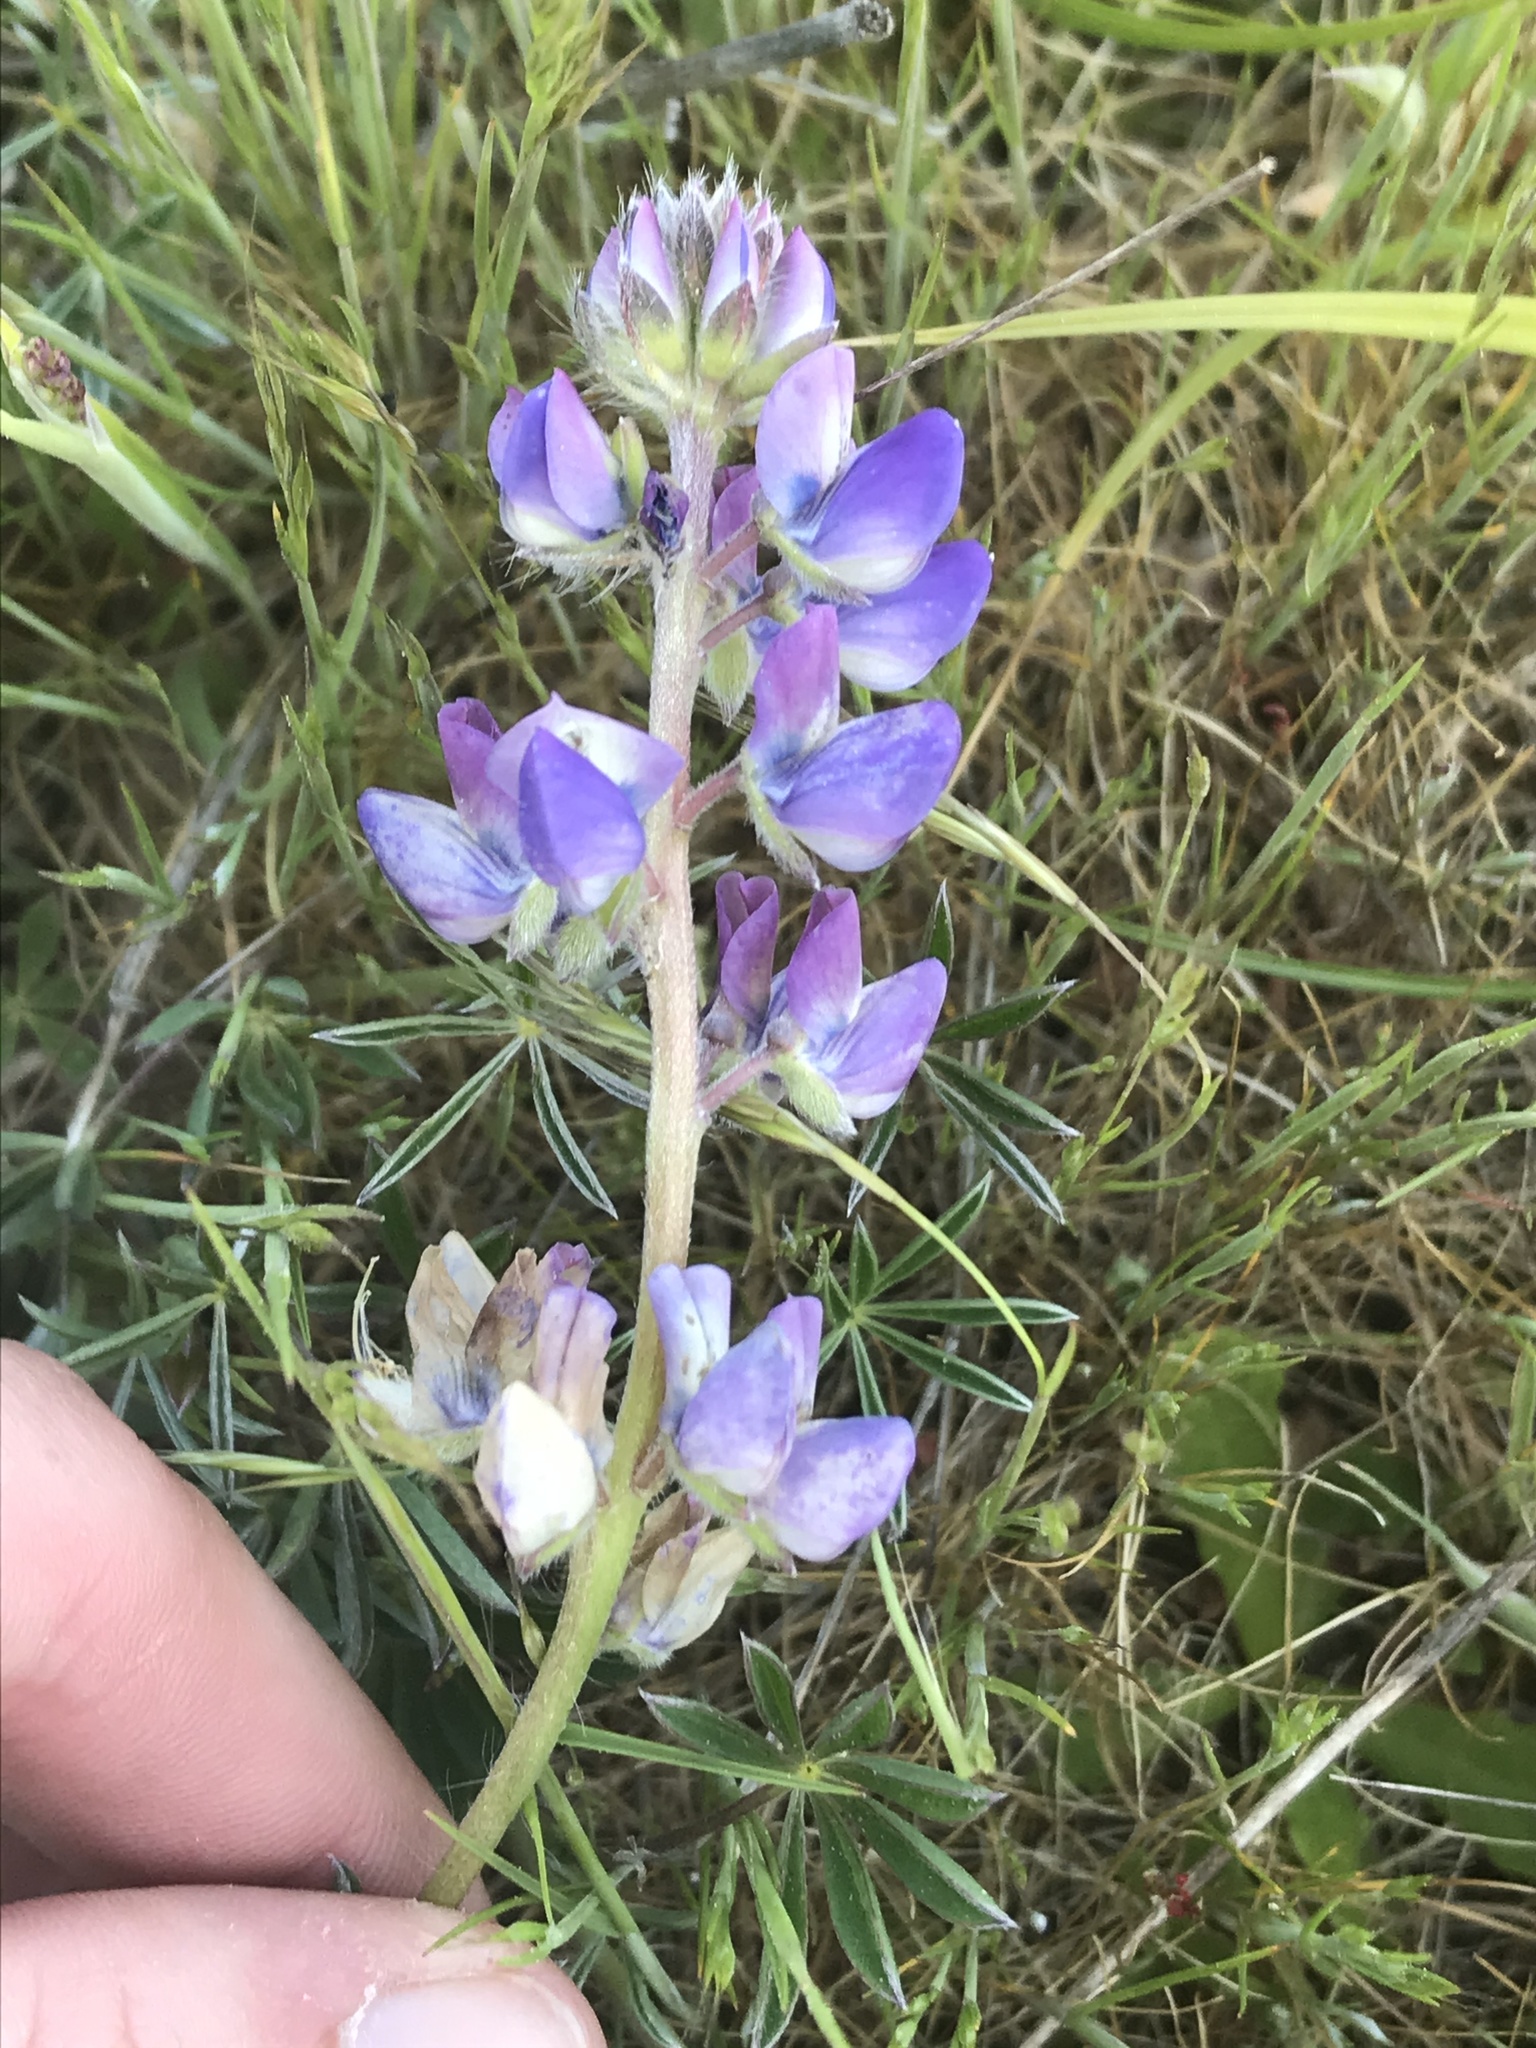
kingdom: Plantae
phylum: Tracheophyta
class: Magnoliopsida
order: Fabales
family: Fabaceae
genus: Lupinus
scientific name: Lupinus littoralis
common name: Seashore lupine
